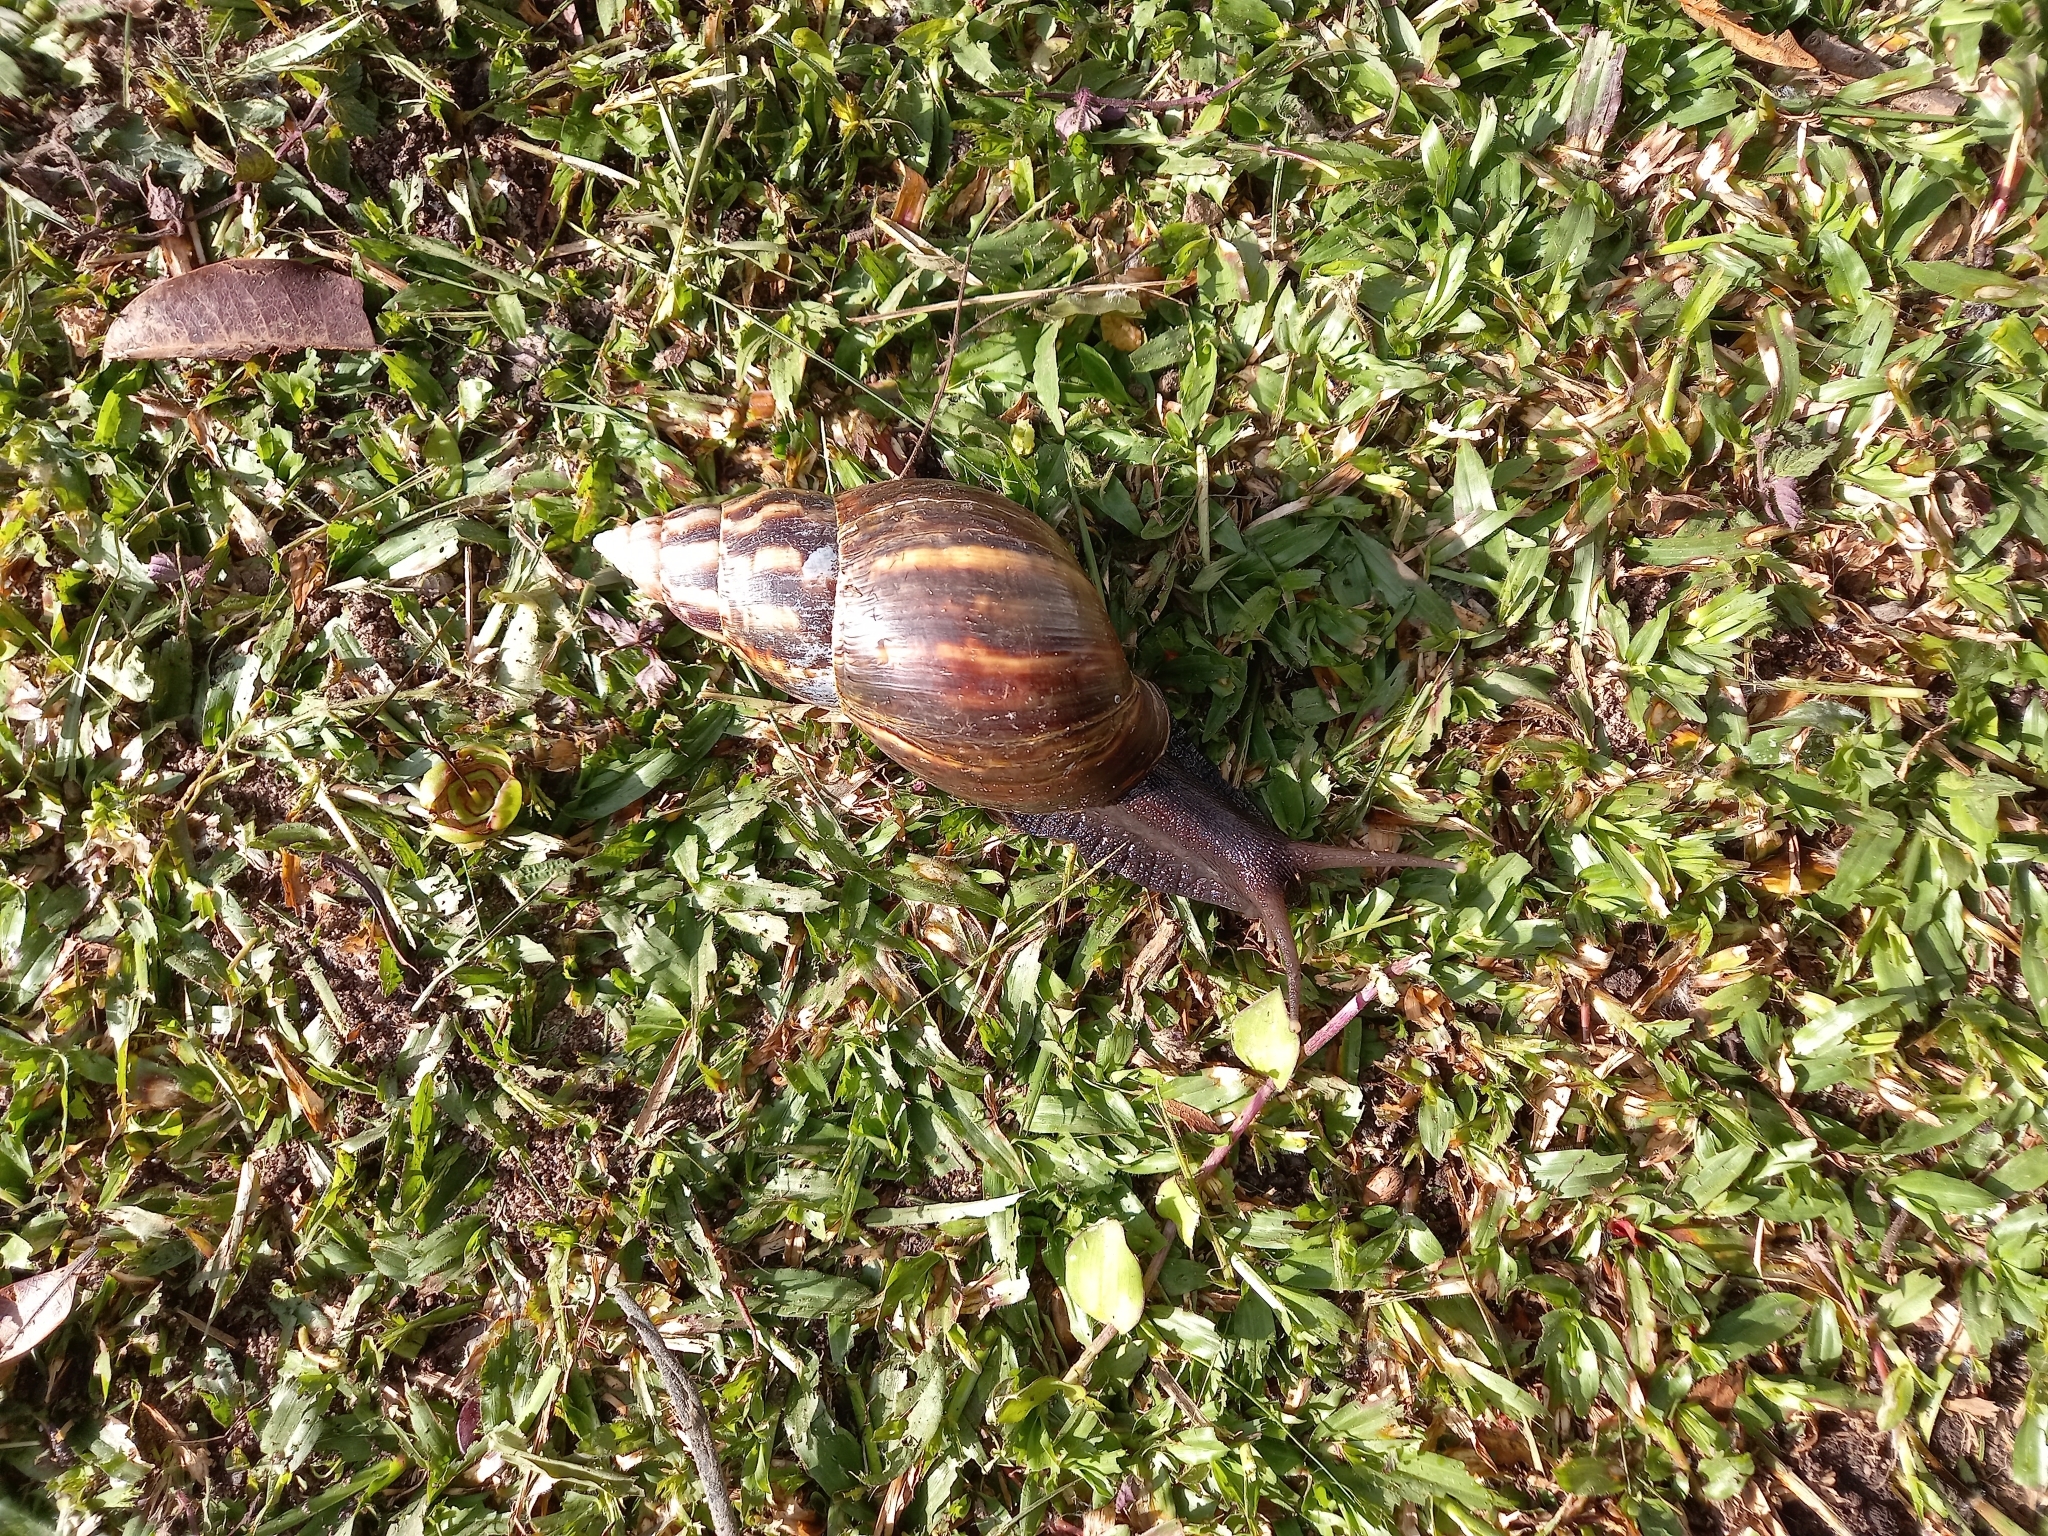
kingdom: Animalia
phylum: Mollusca
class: Gastropoda
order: Stylommatophora
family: Achatinidae
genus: Lissachatina
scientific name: Lissachatina fulica
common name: Giant african snail
